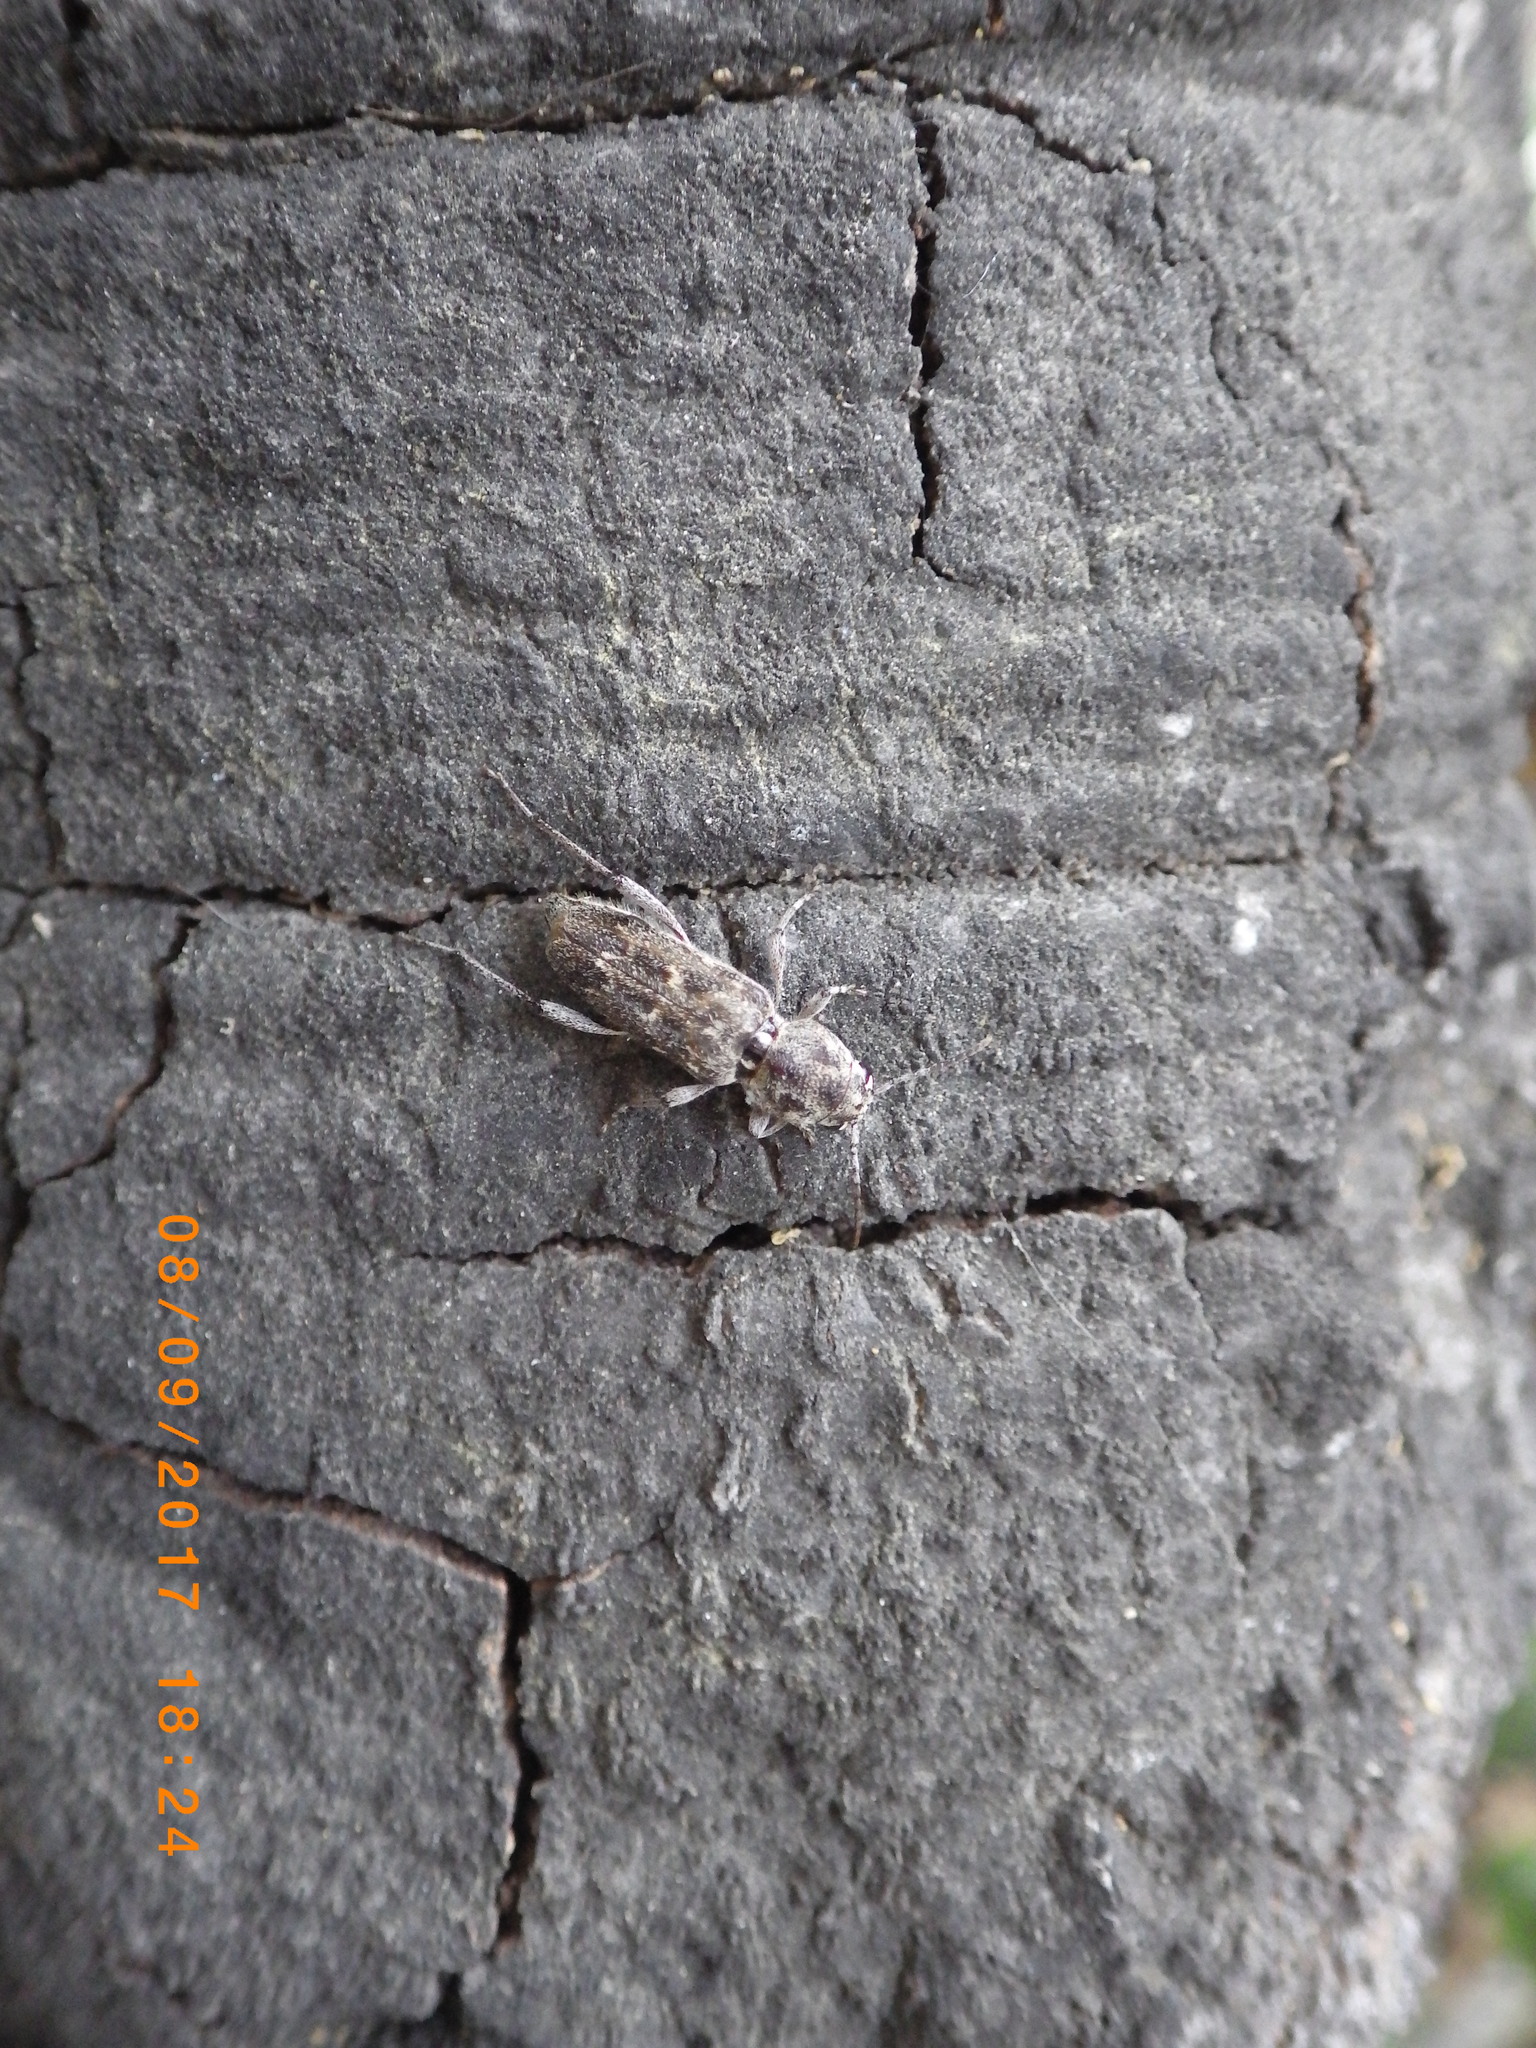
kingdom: Animalia
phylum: Arthropoda
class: Insecta
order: Coleoptera
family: Cerambycidae
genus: Xylotrechus
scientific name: Xylotrechus nauticus
